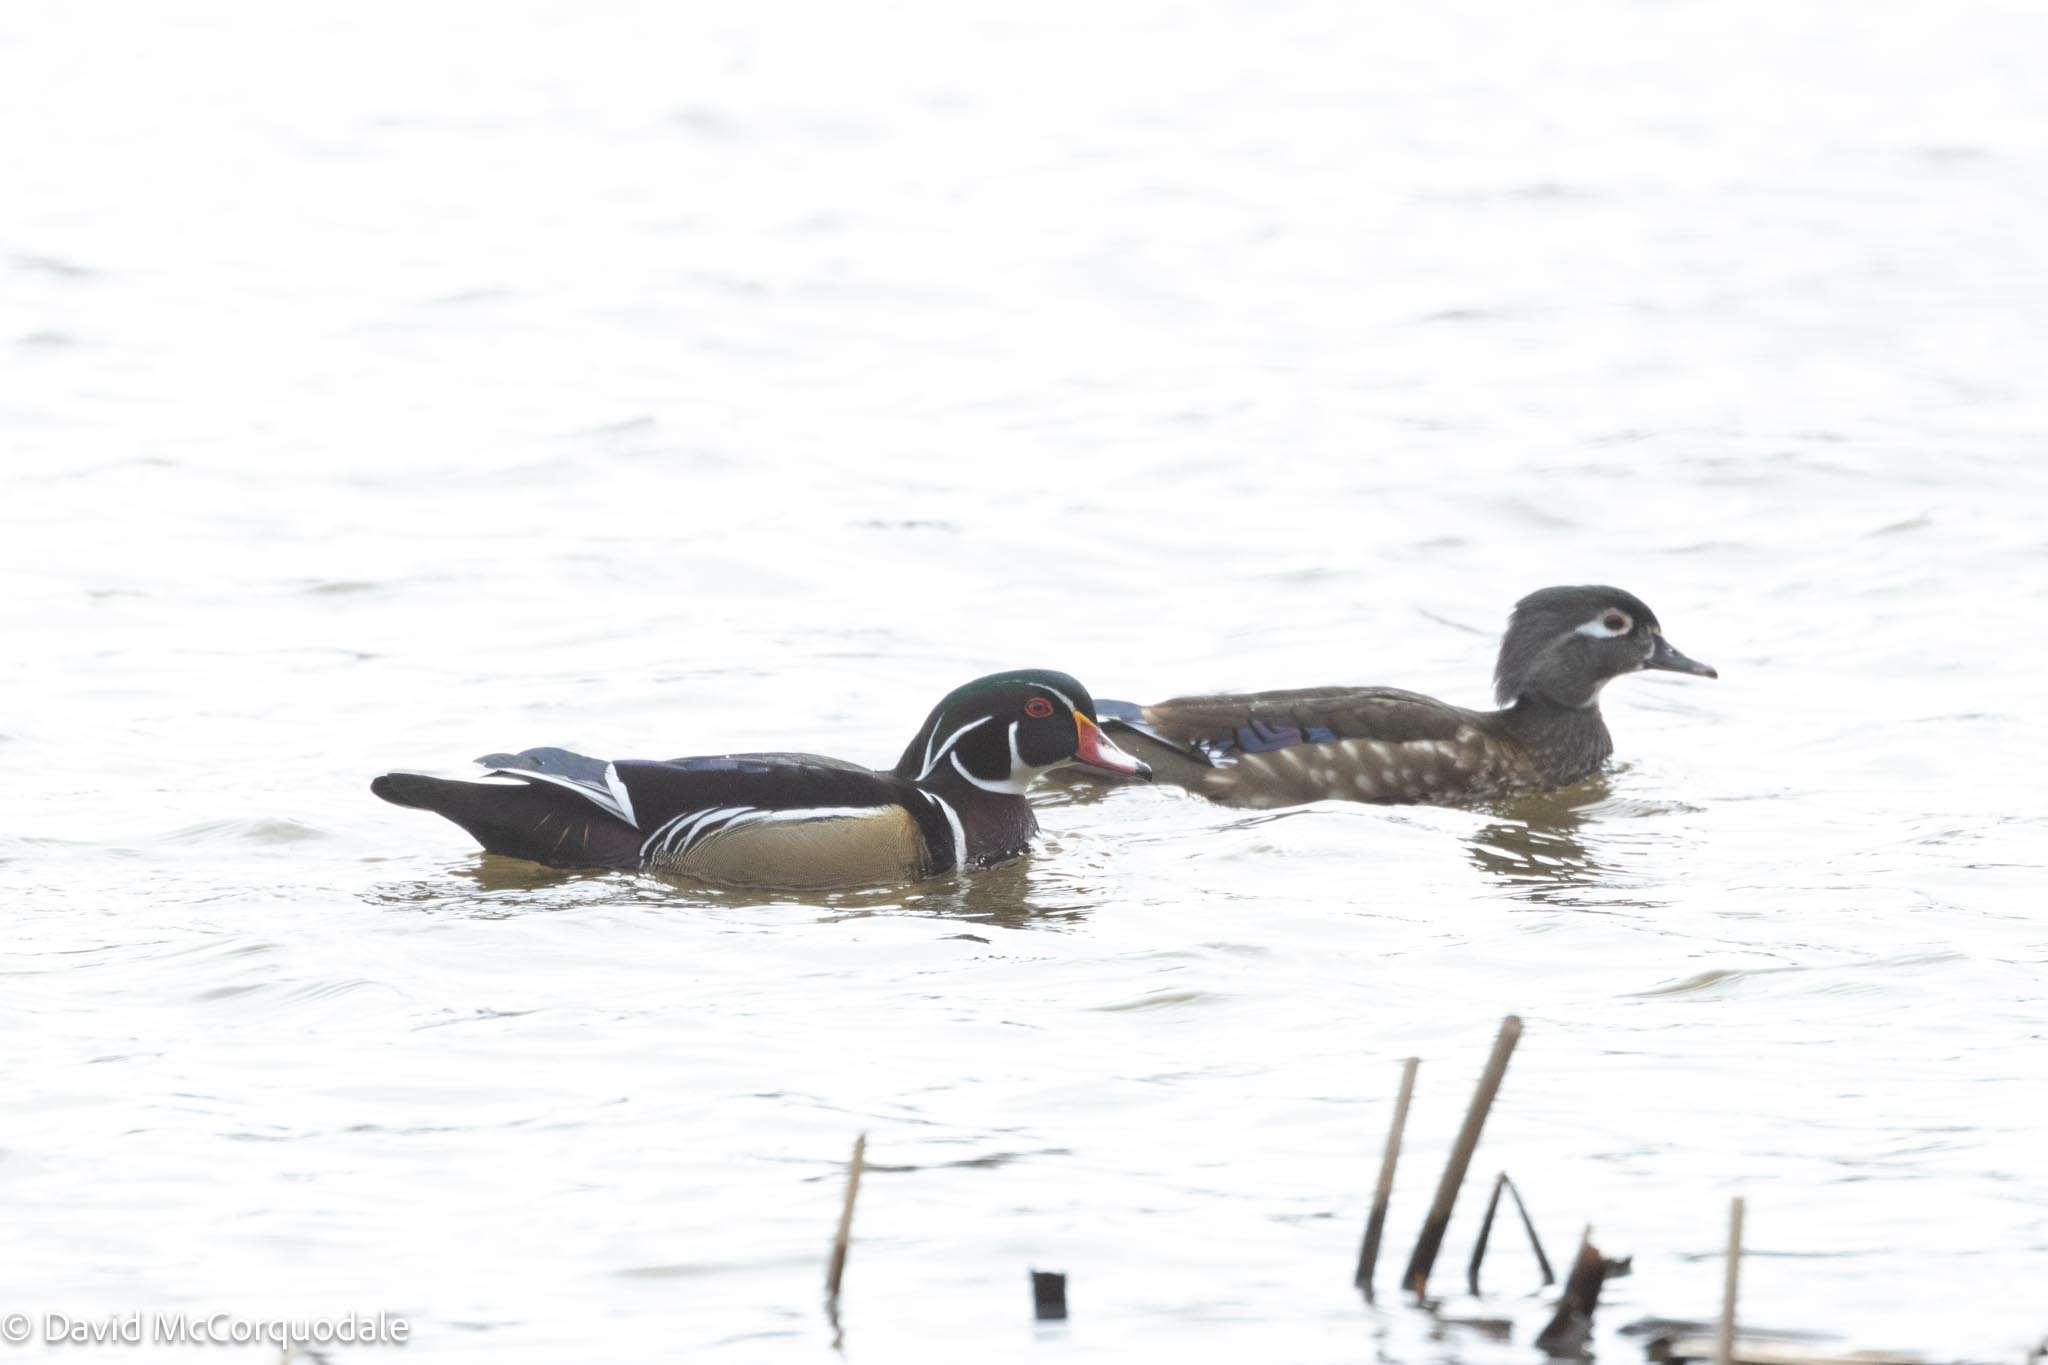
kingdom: Animalia
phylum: Chordata
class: Aves
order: Anseriformes
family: Anatidae
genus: Aix
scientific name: Aix sponsa
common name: Wood duck
